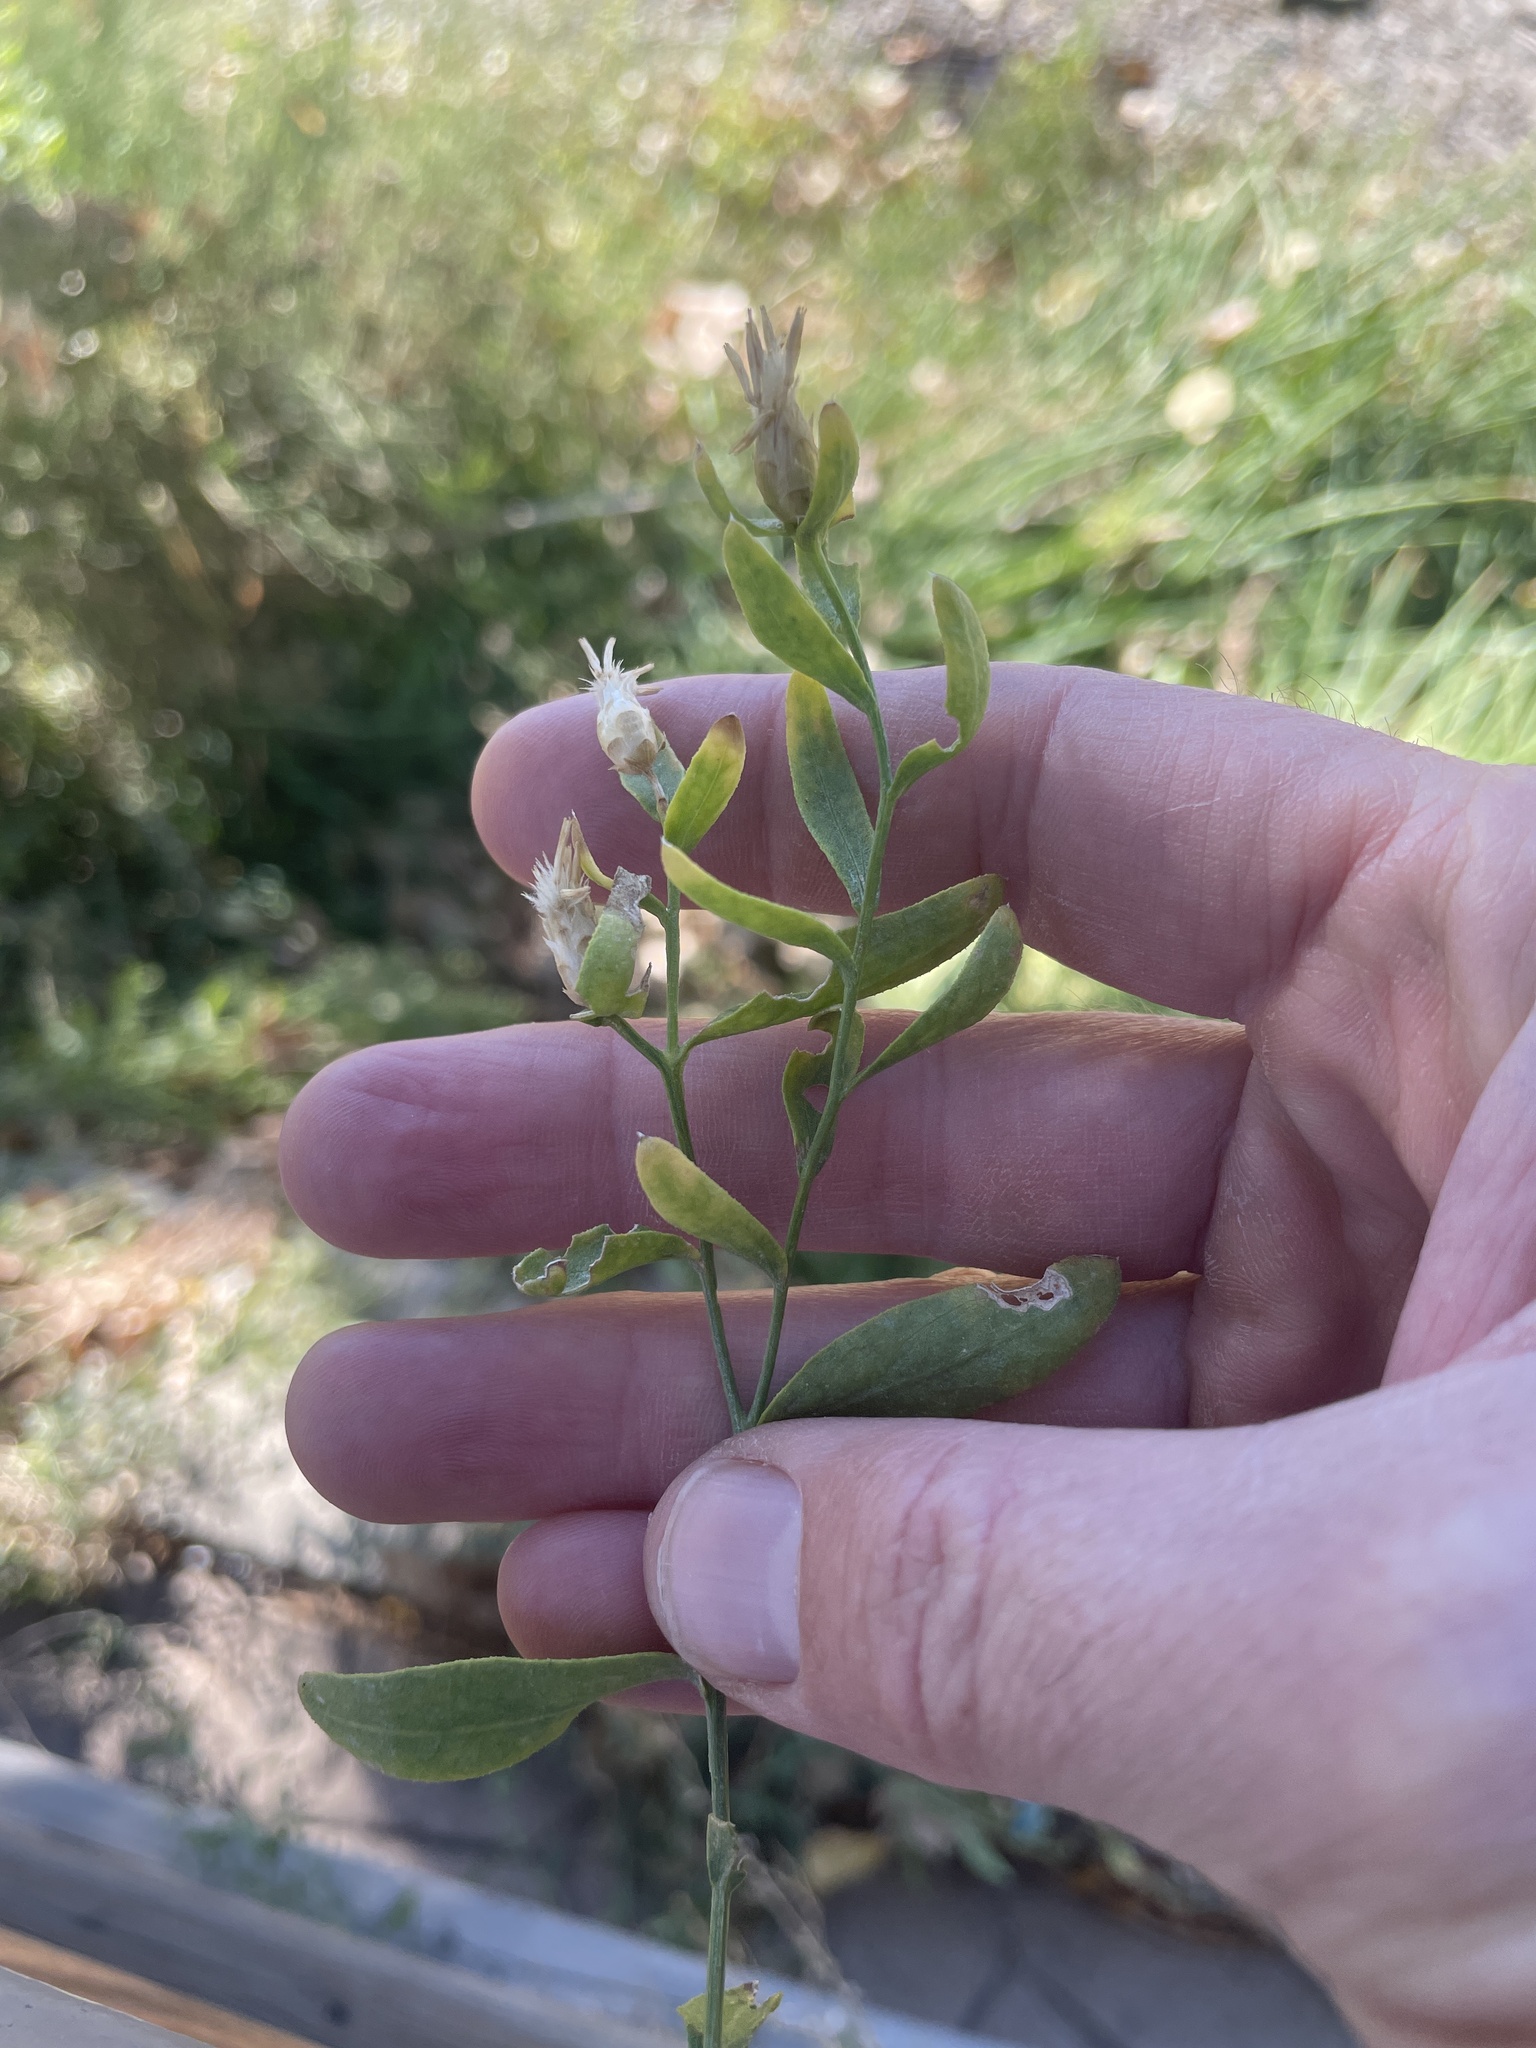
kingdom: Plantae
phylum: Tracheophyta
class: Magnoliopsida
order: Asterales
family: Asteraceae
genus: Leuzea
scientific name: Leuzea repens
